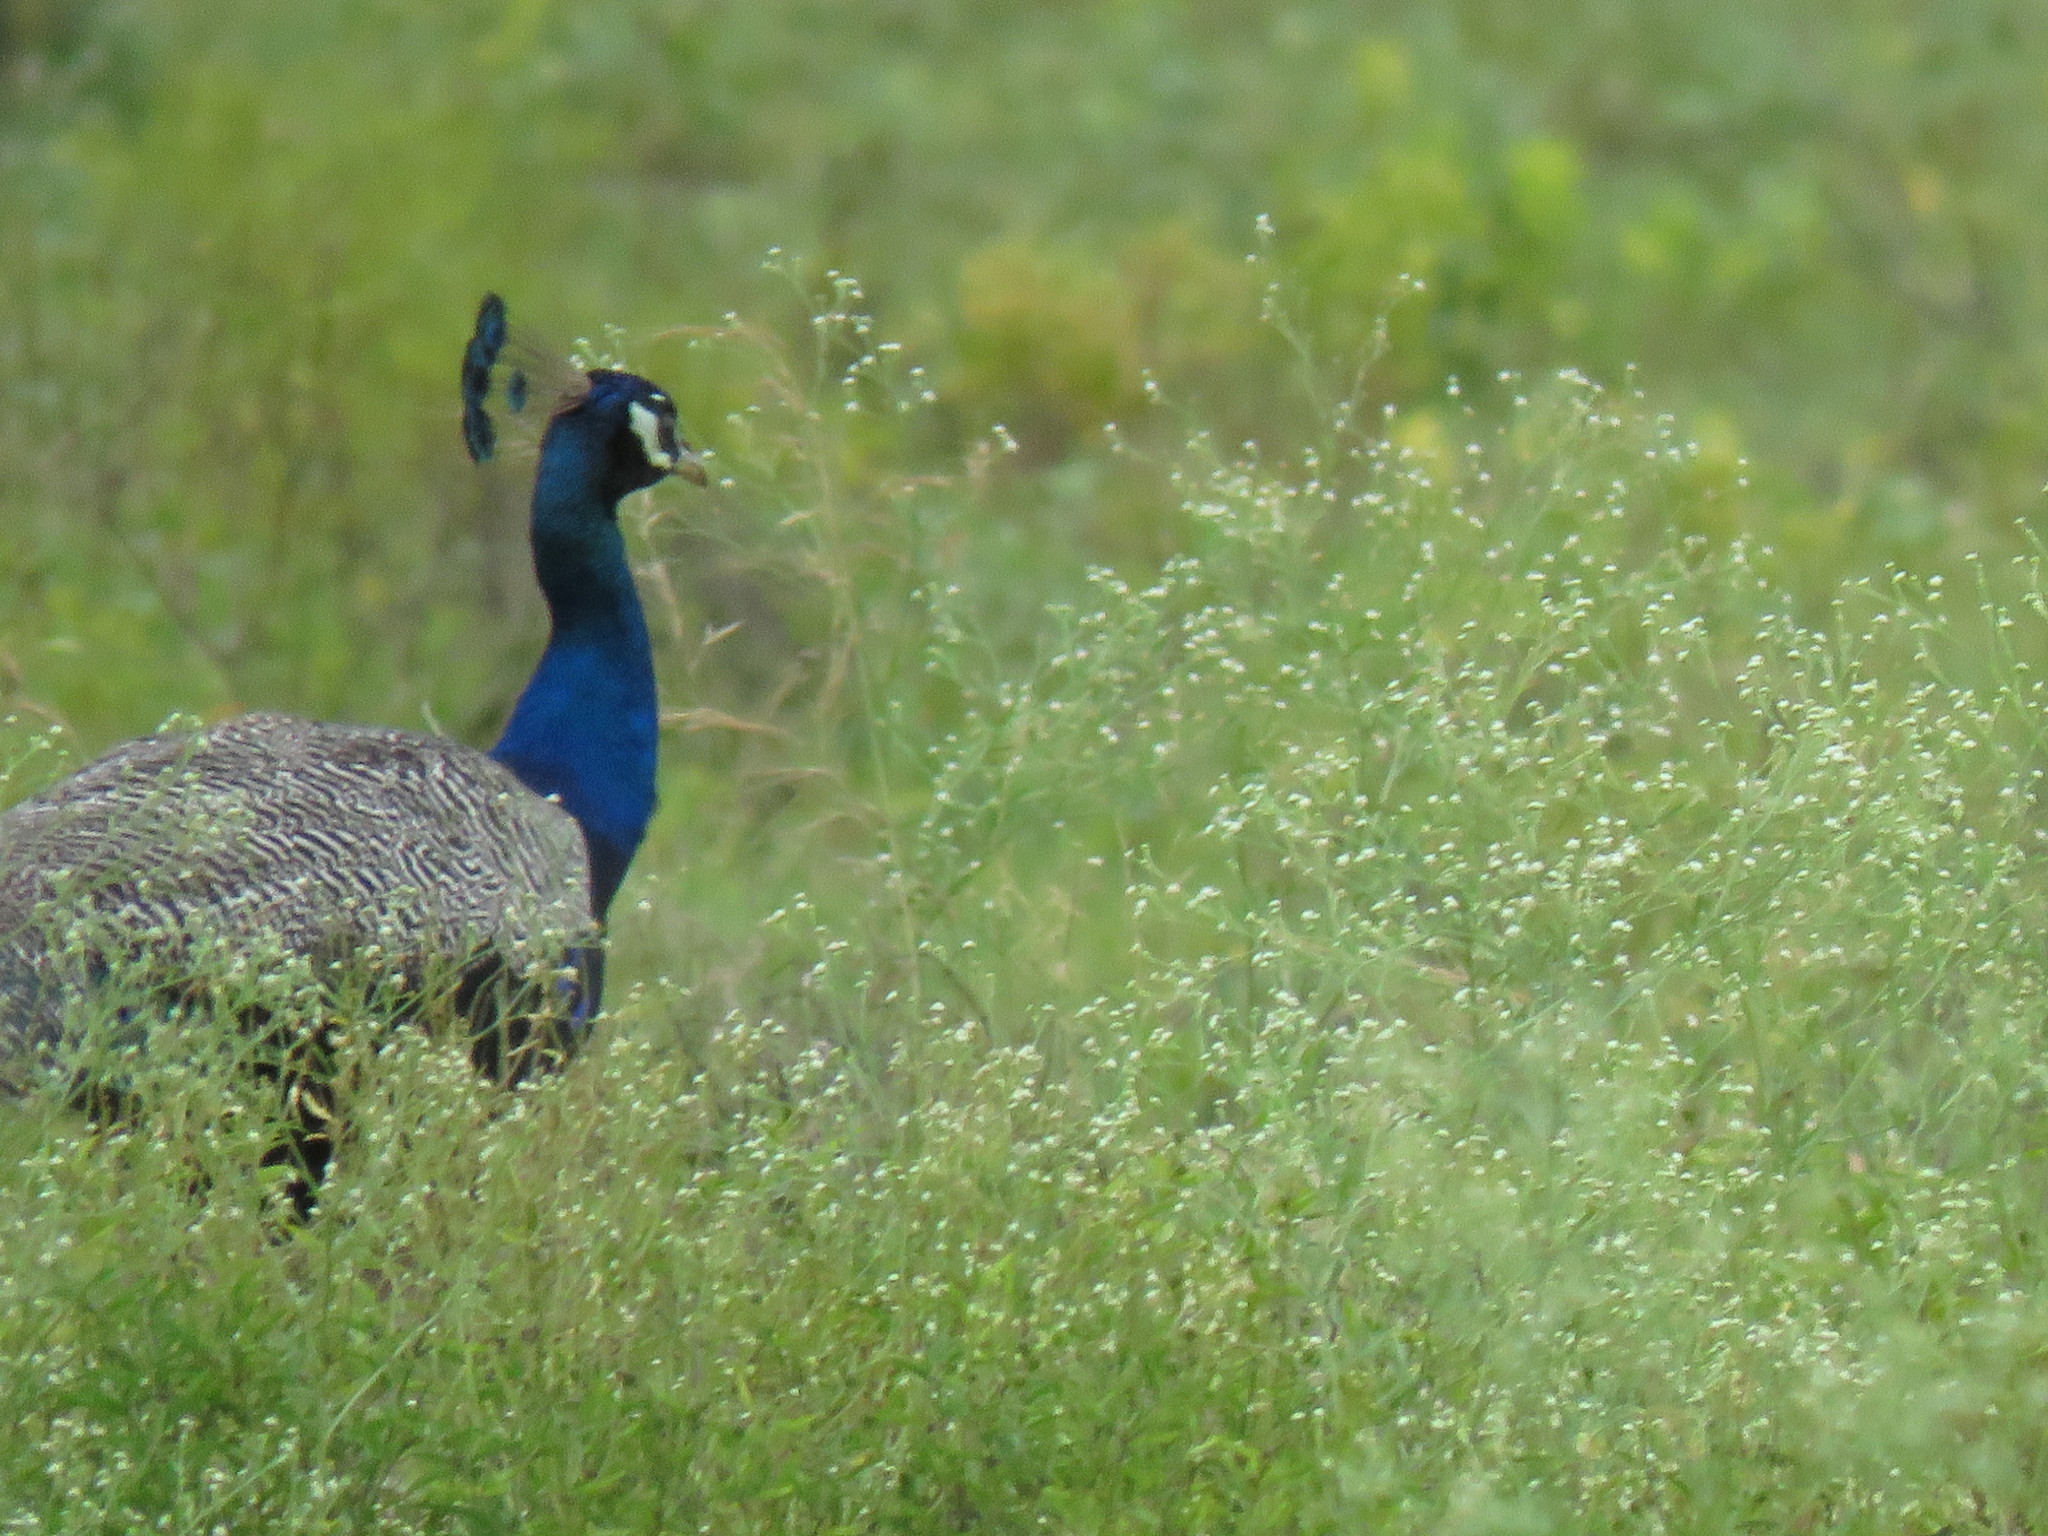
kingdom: Animalia
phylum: Chordata
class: Aves
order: Galliformes
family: Phasianidae
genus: Pavo
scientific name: Pavo cristatus
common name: Indian peafowl
